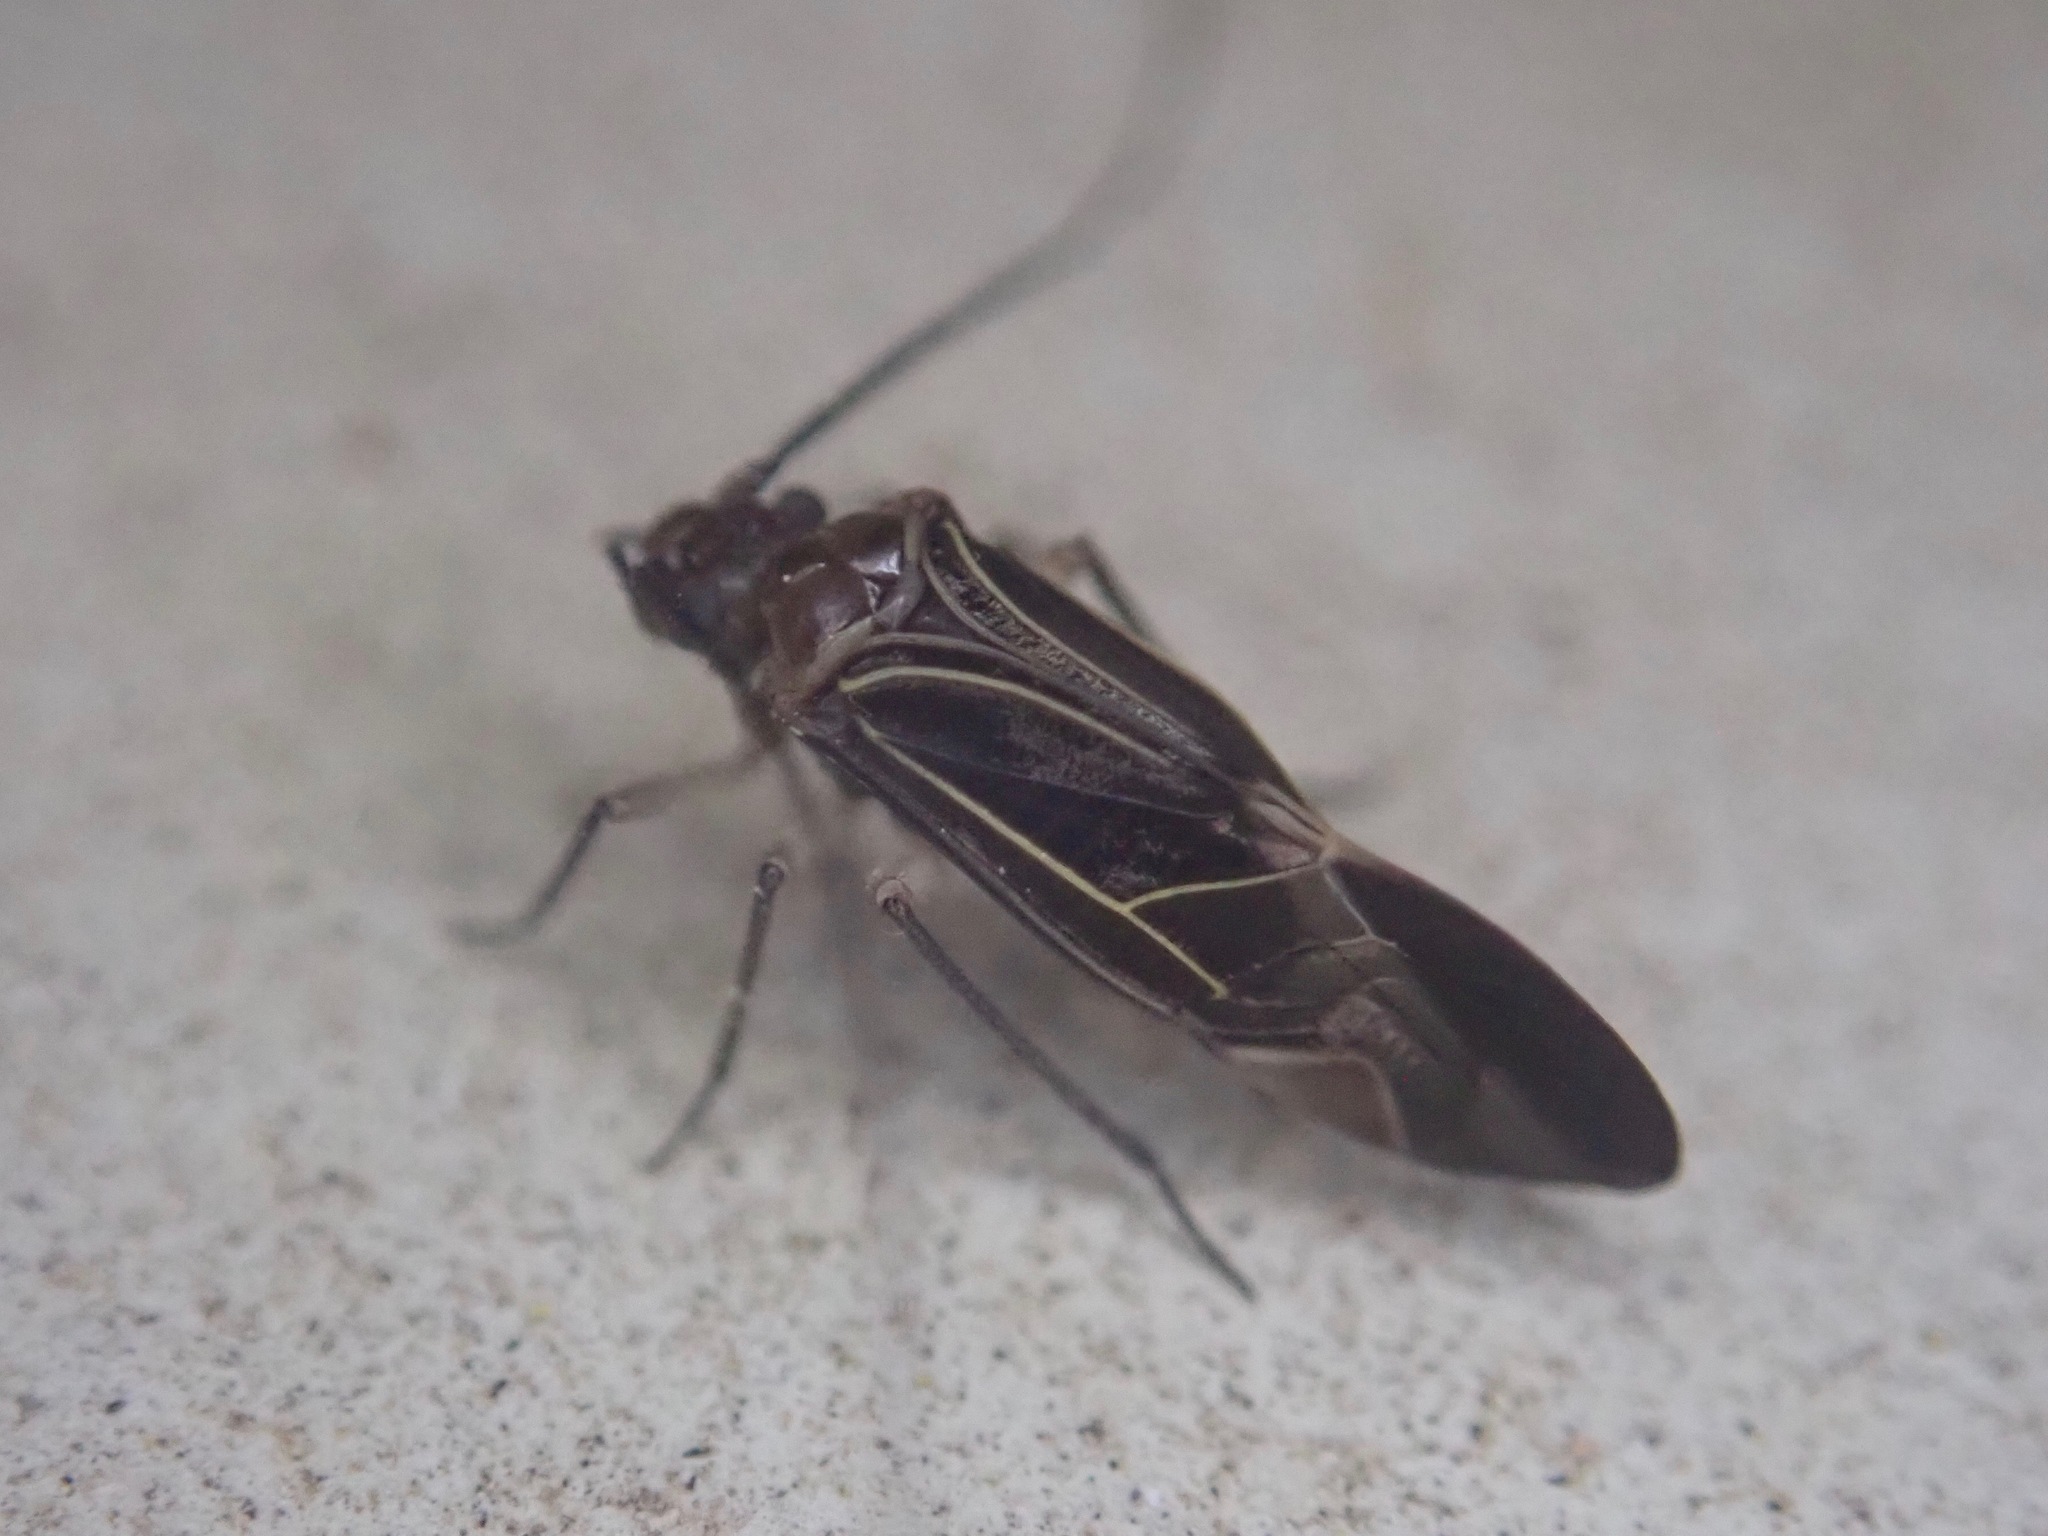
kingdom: Animalia
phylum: Arthropoda
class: Insecta
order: Psocodea
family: Psocidae
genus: Cerastipsocus
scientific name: Cerastipsocus venosus
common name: Tree cattle
